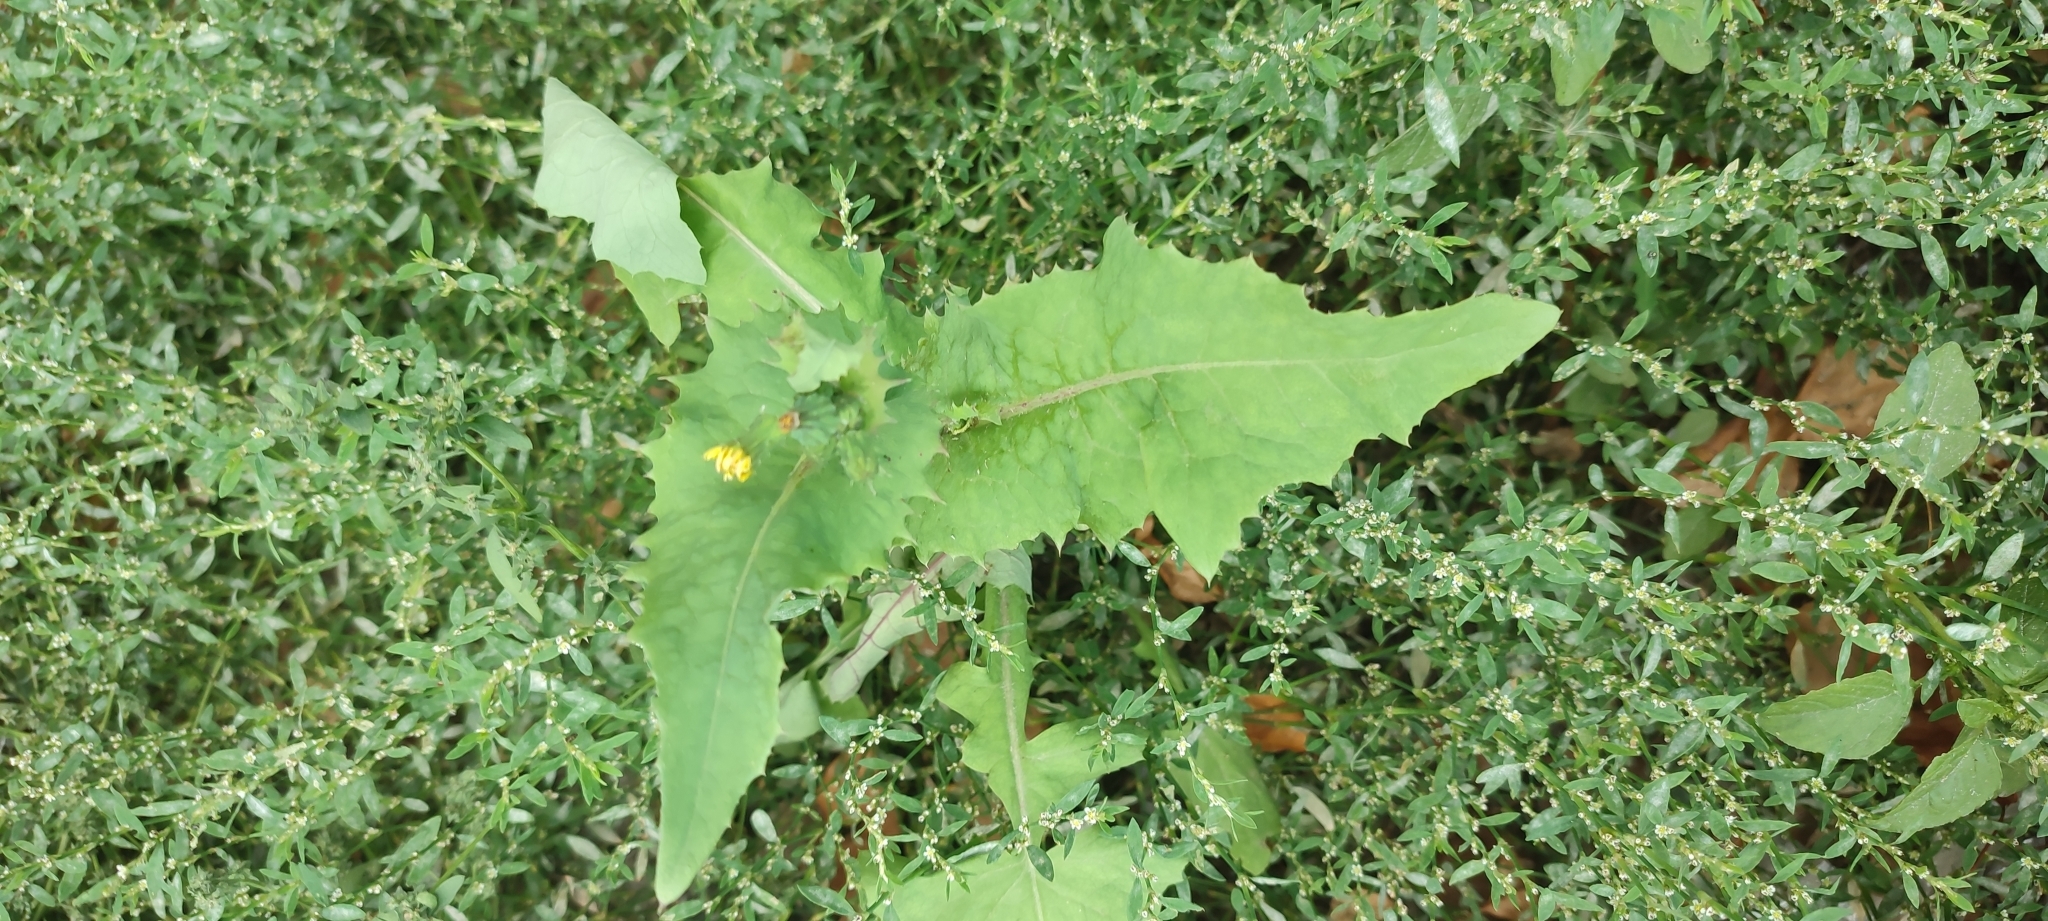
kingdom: Plantae
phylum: Tracheophyta
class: Magnoliopsida
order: Asterales
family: Asteraceae
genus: Sonchus
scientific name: Sonchus oleraceus
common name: Common sowthistle
